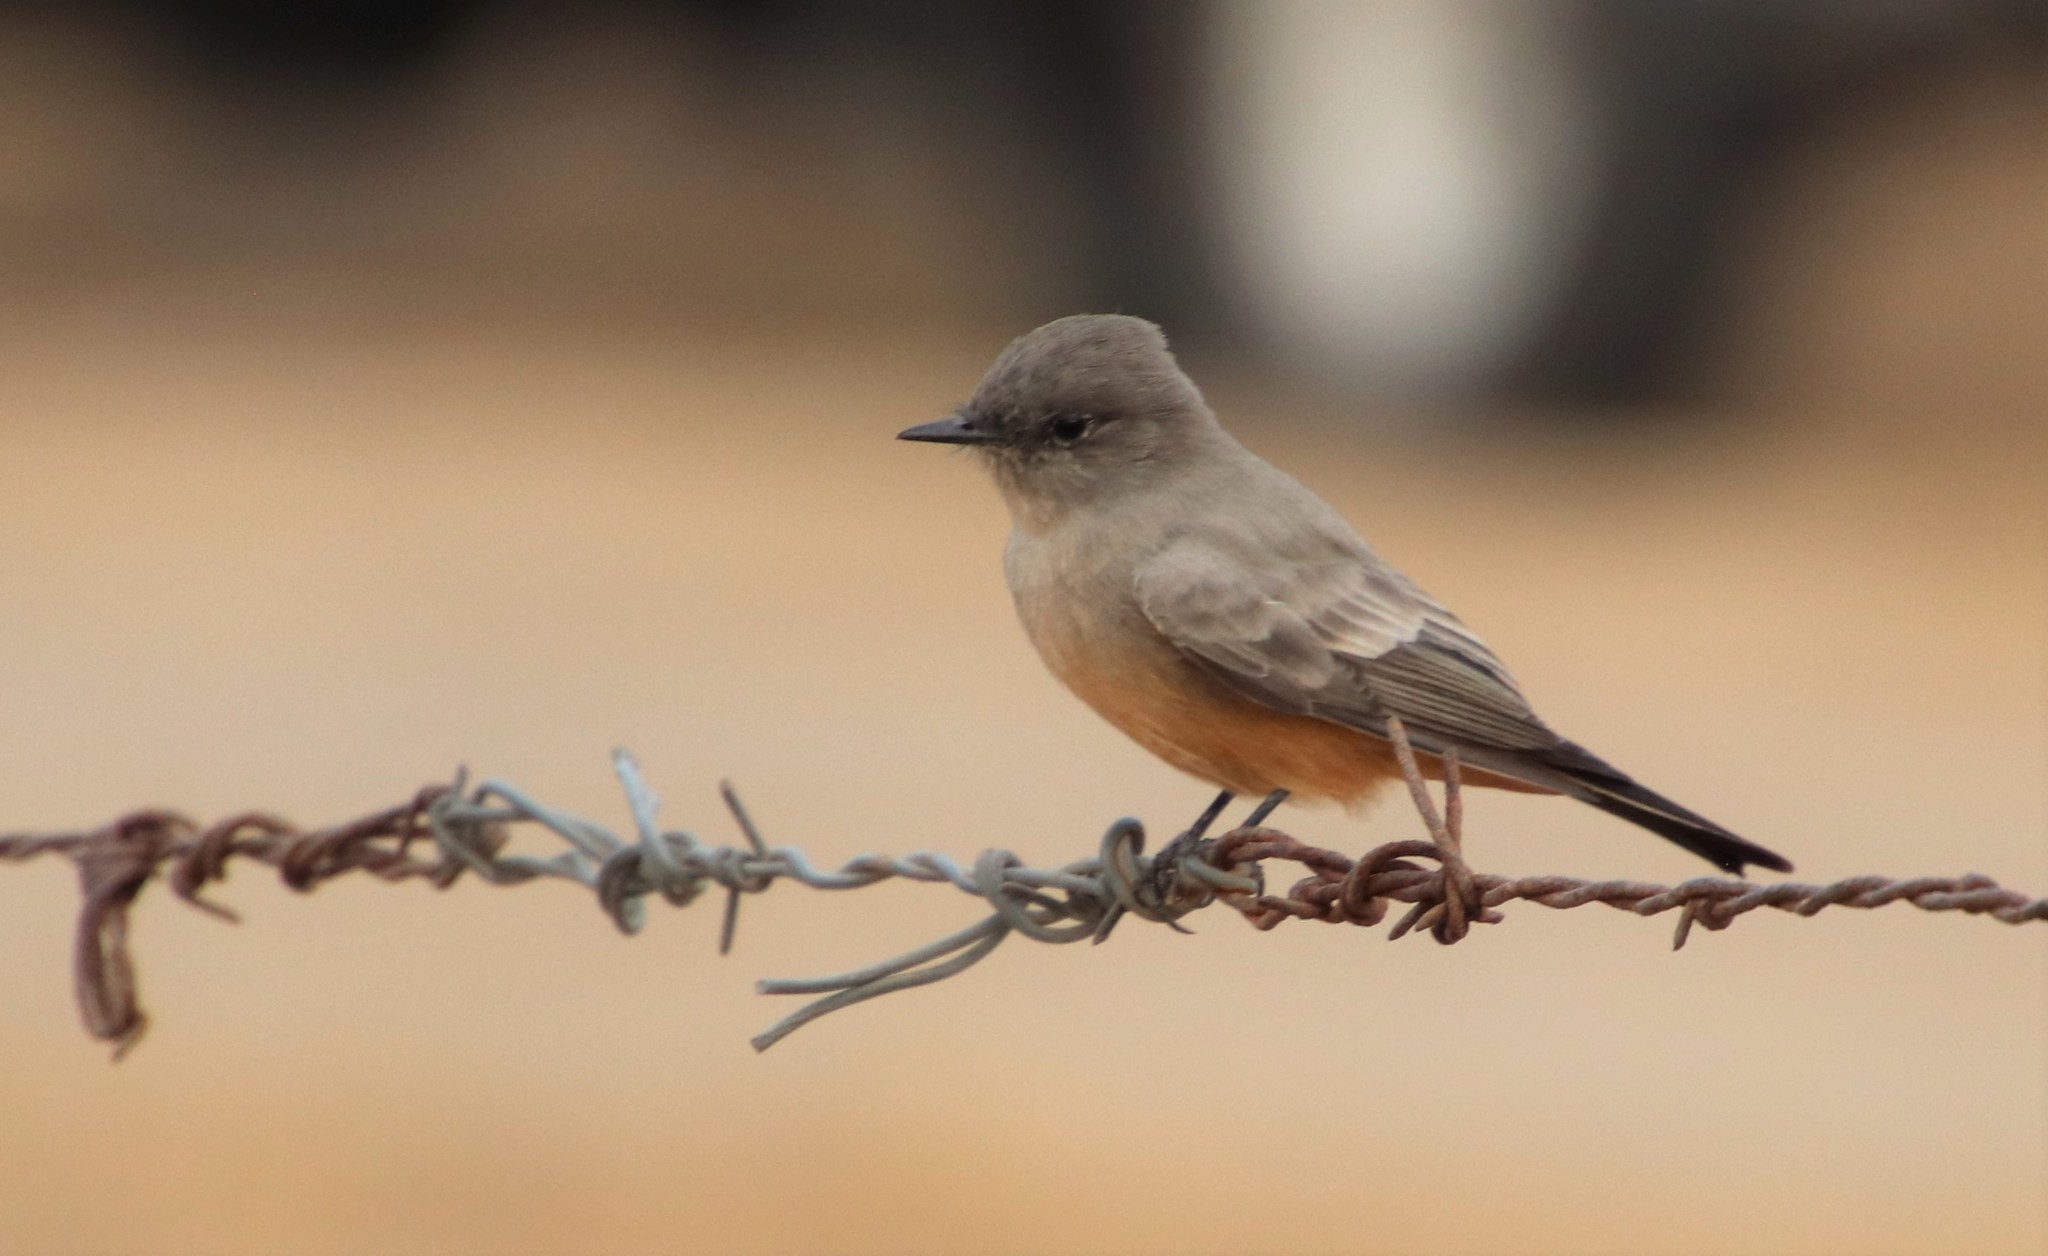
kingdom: Animalia
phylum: Chordata
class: Aves
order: Passeriformes
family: Tyrannidae
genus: Sayornis
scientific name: Sayornis saya
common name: Say's phoebe
